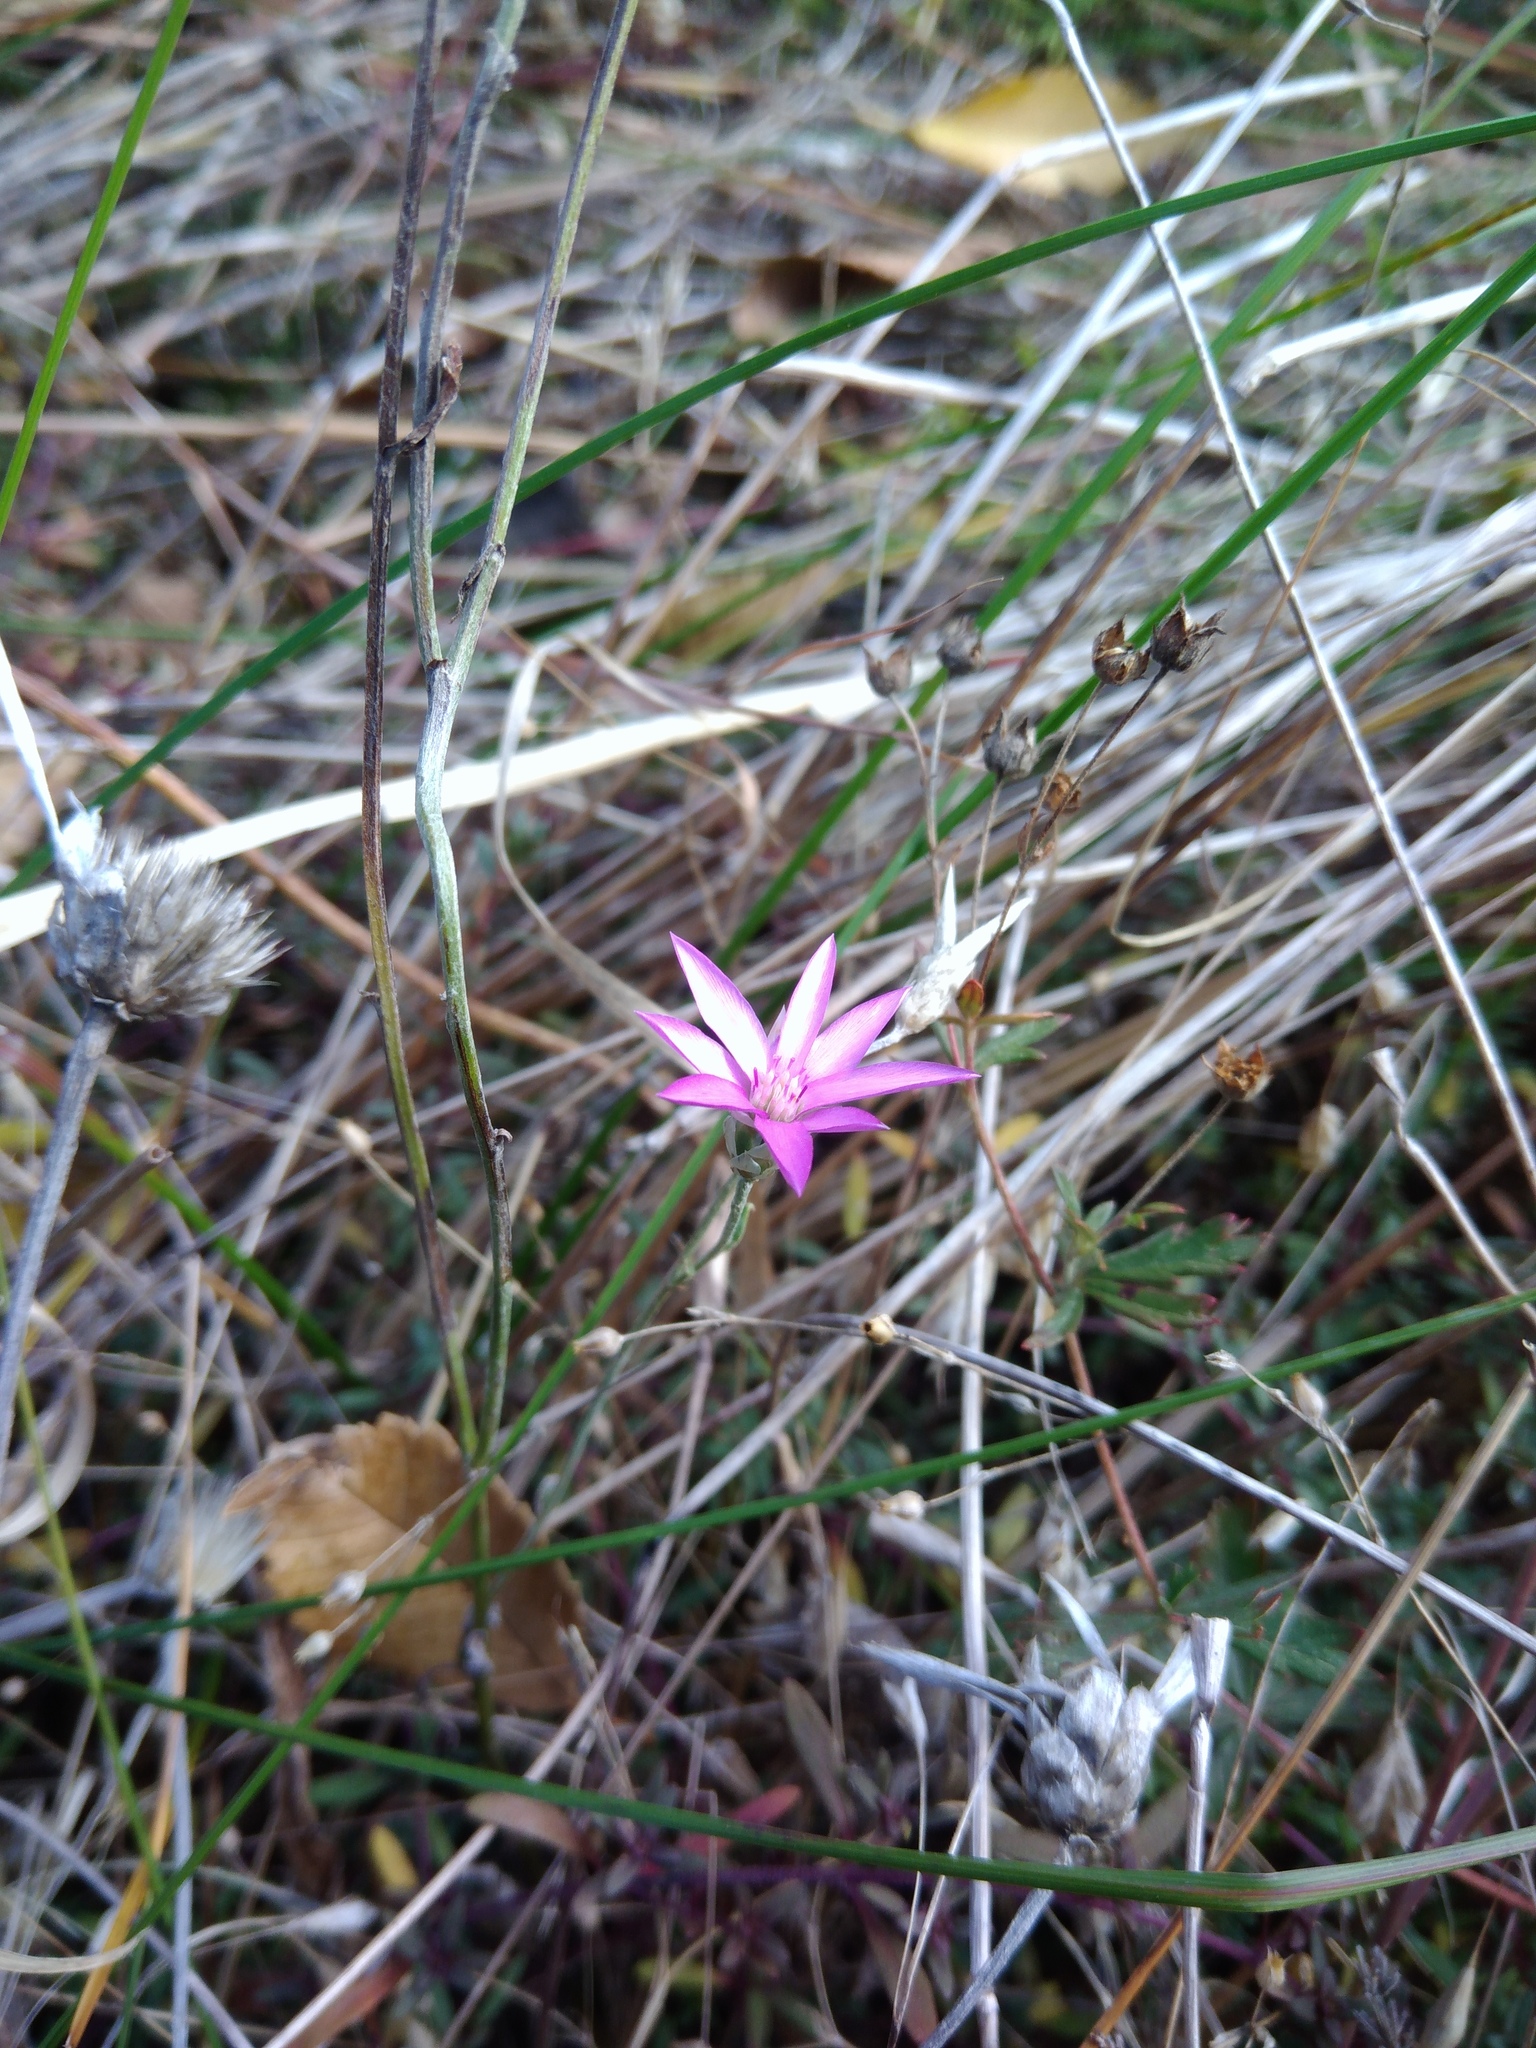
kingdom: Plantae
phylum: Tracheophyta
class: Magnoliopsida
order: Asterales
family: Asteraceae
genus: Xeranthemum
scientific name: Xeranthemum annuum
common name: Immortelle
